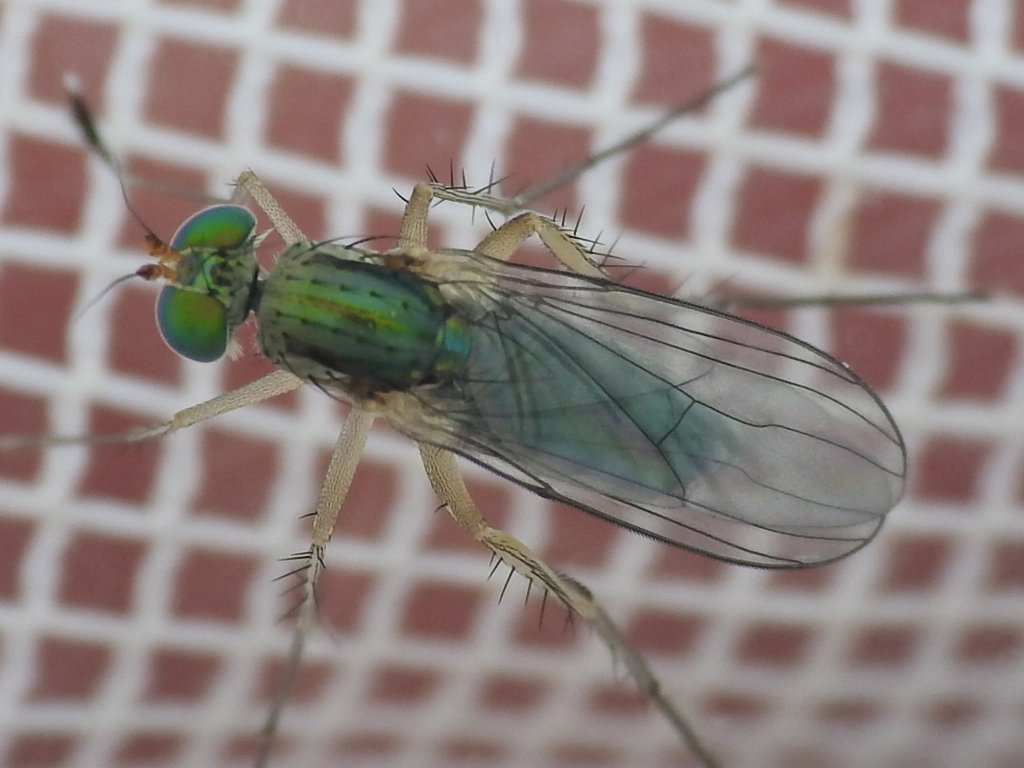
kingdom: Animalia
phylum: Arthropoda
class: Insecta
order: Diptera
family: Dolichopodidae
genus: Dolichopus
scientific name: Dolichopus pulchrimanus
